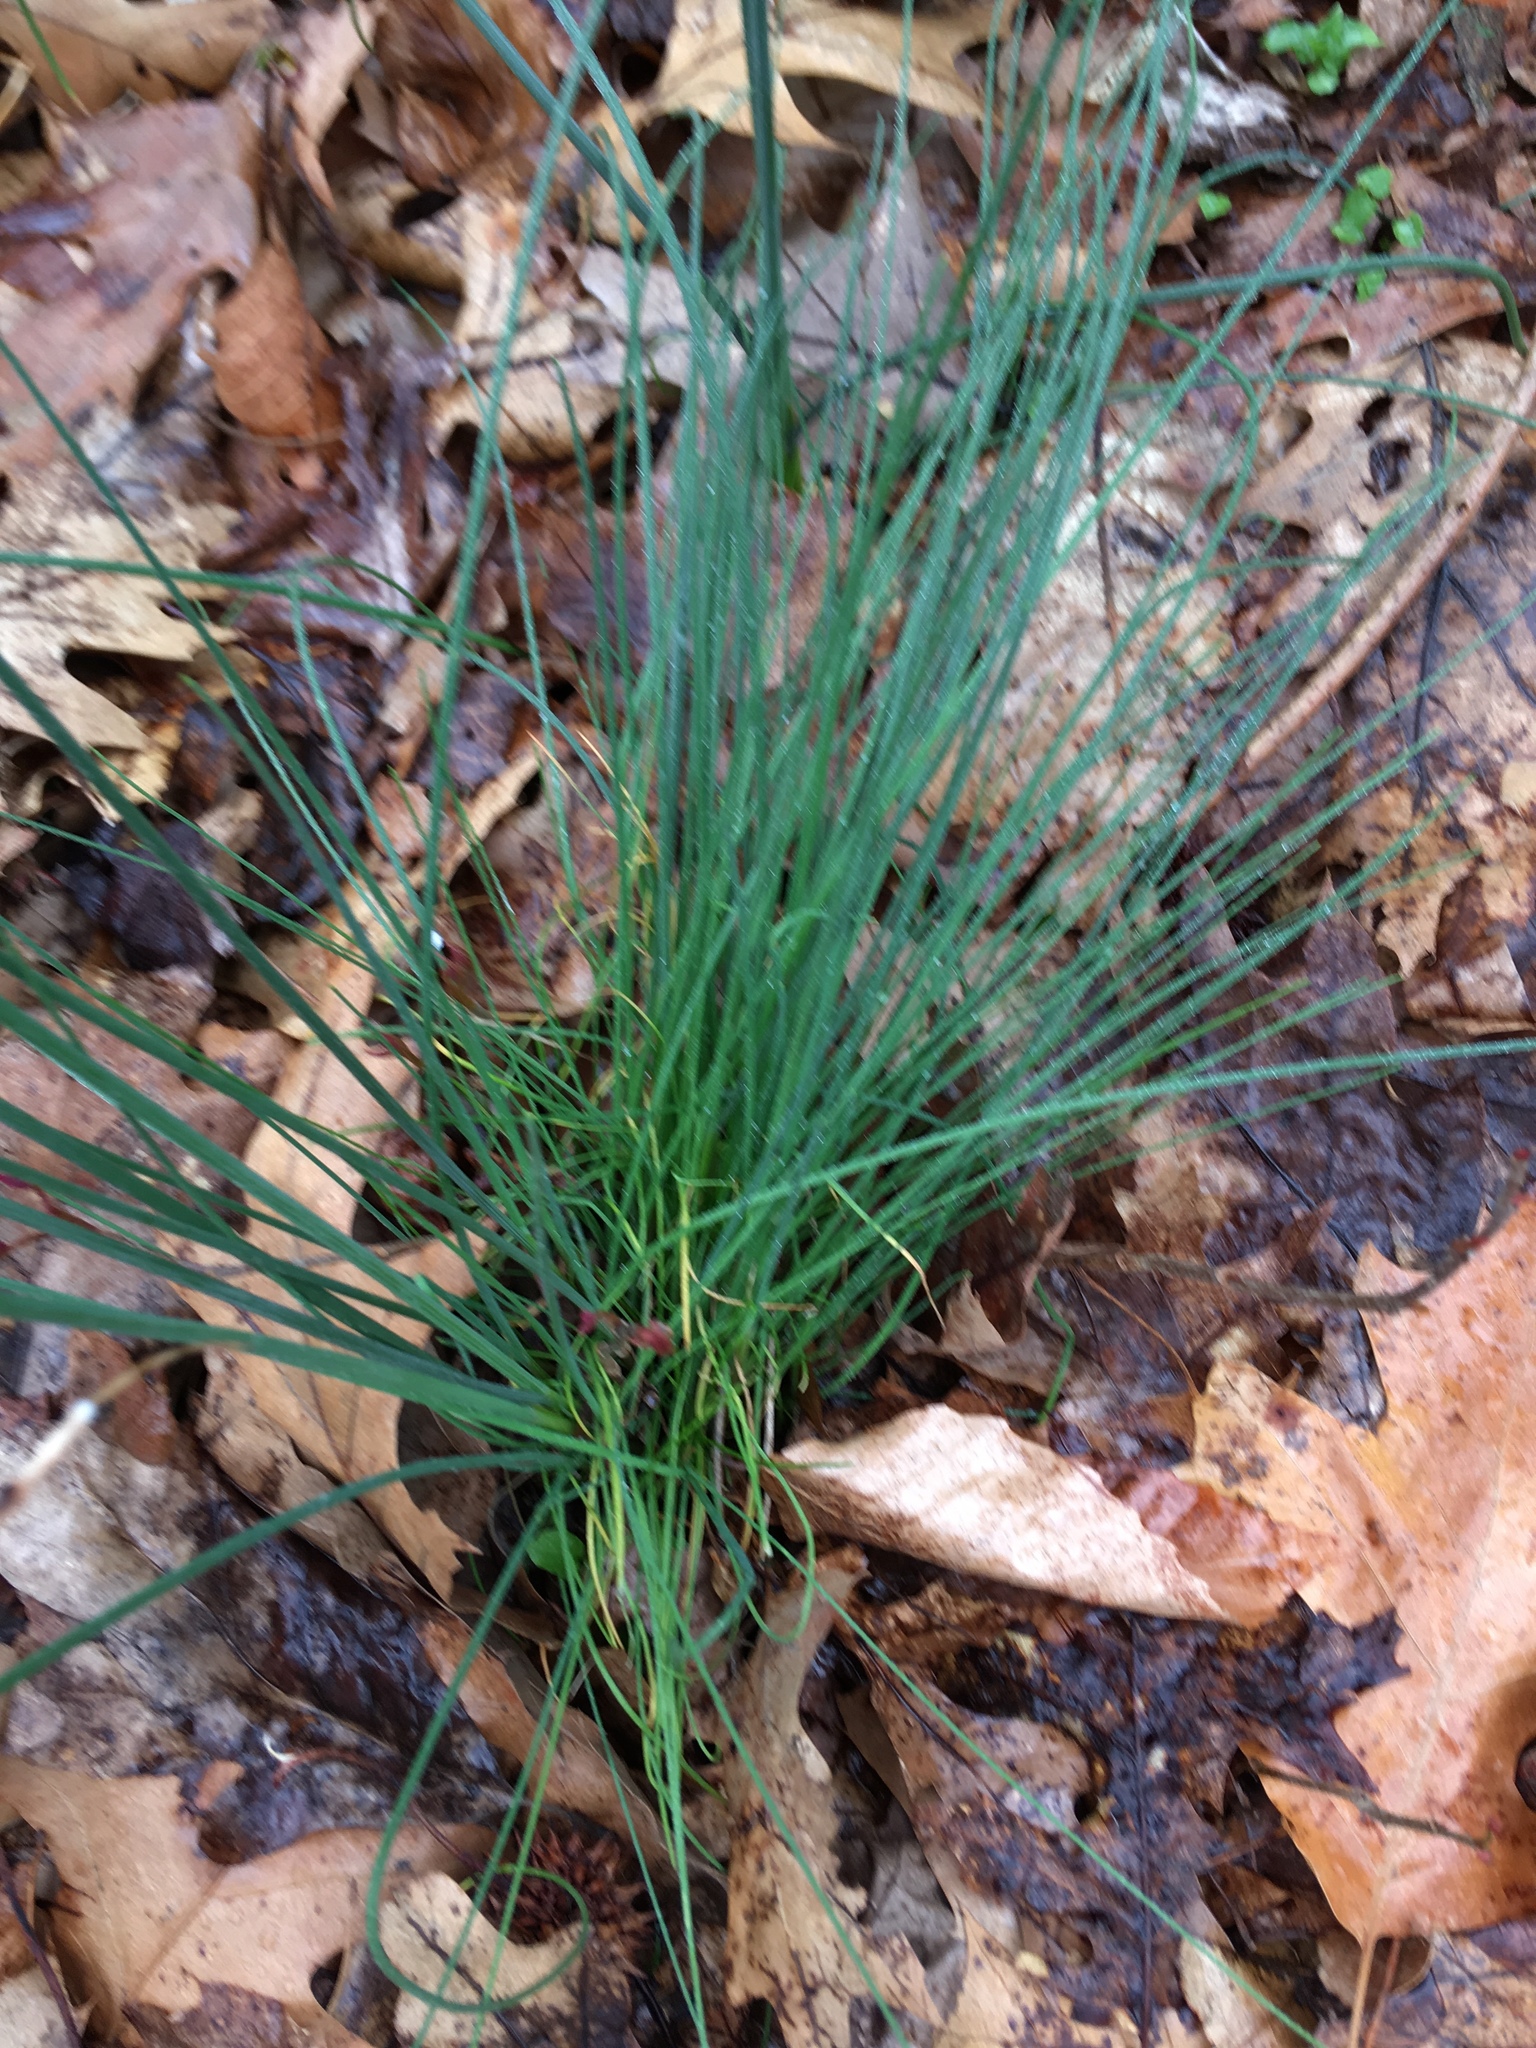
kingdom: Plantae
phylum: Tracheophyta
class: Liliopsida
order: Asparagales
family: Amaryllidaceae
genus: Allium
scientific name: Allium vineale
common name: Crow garlic
